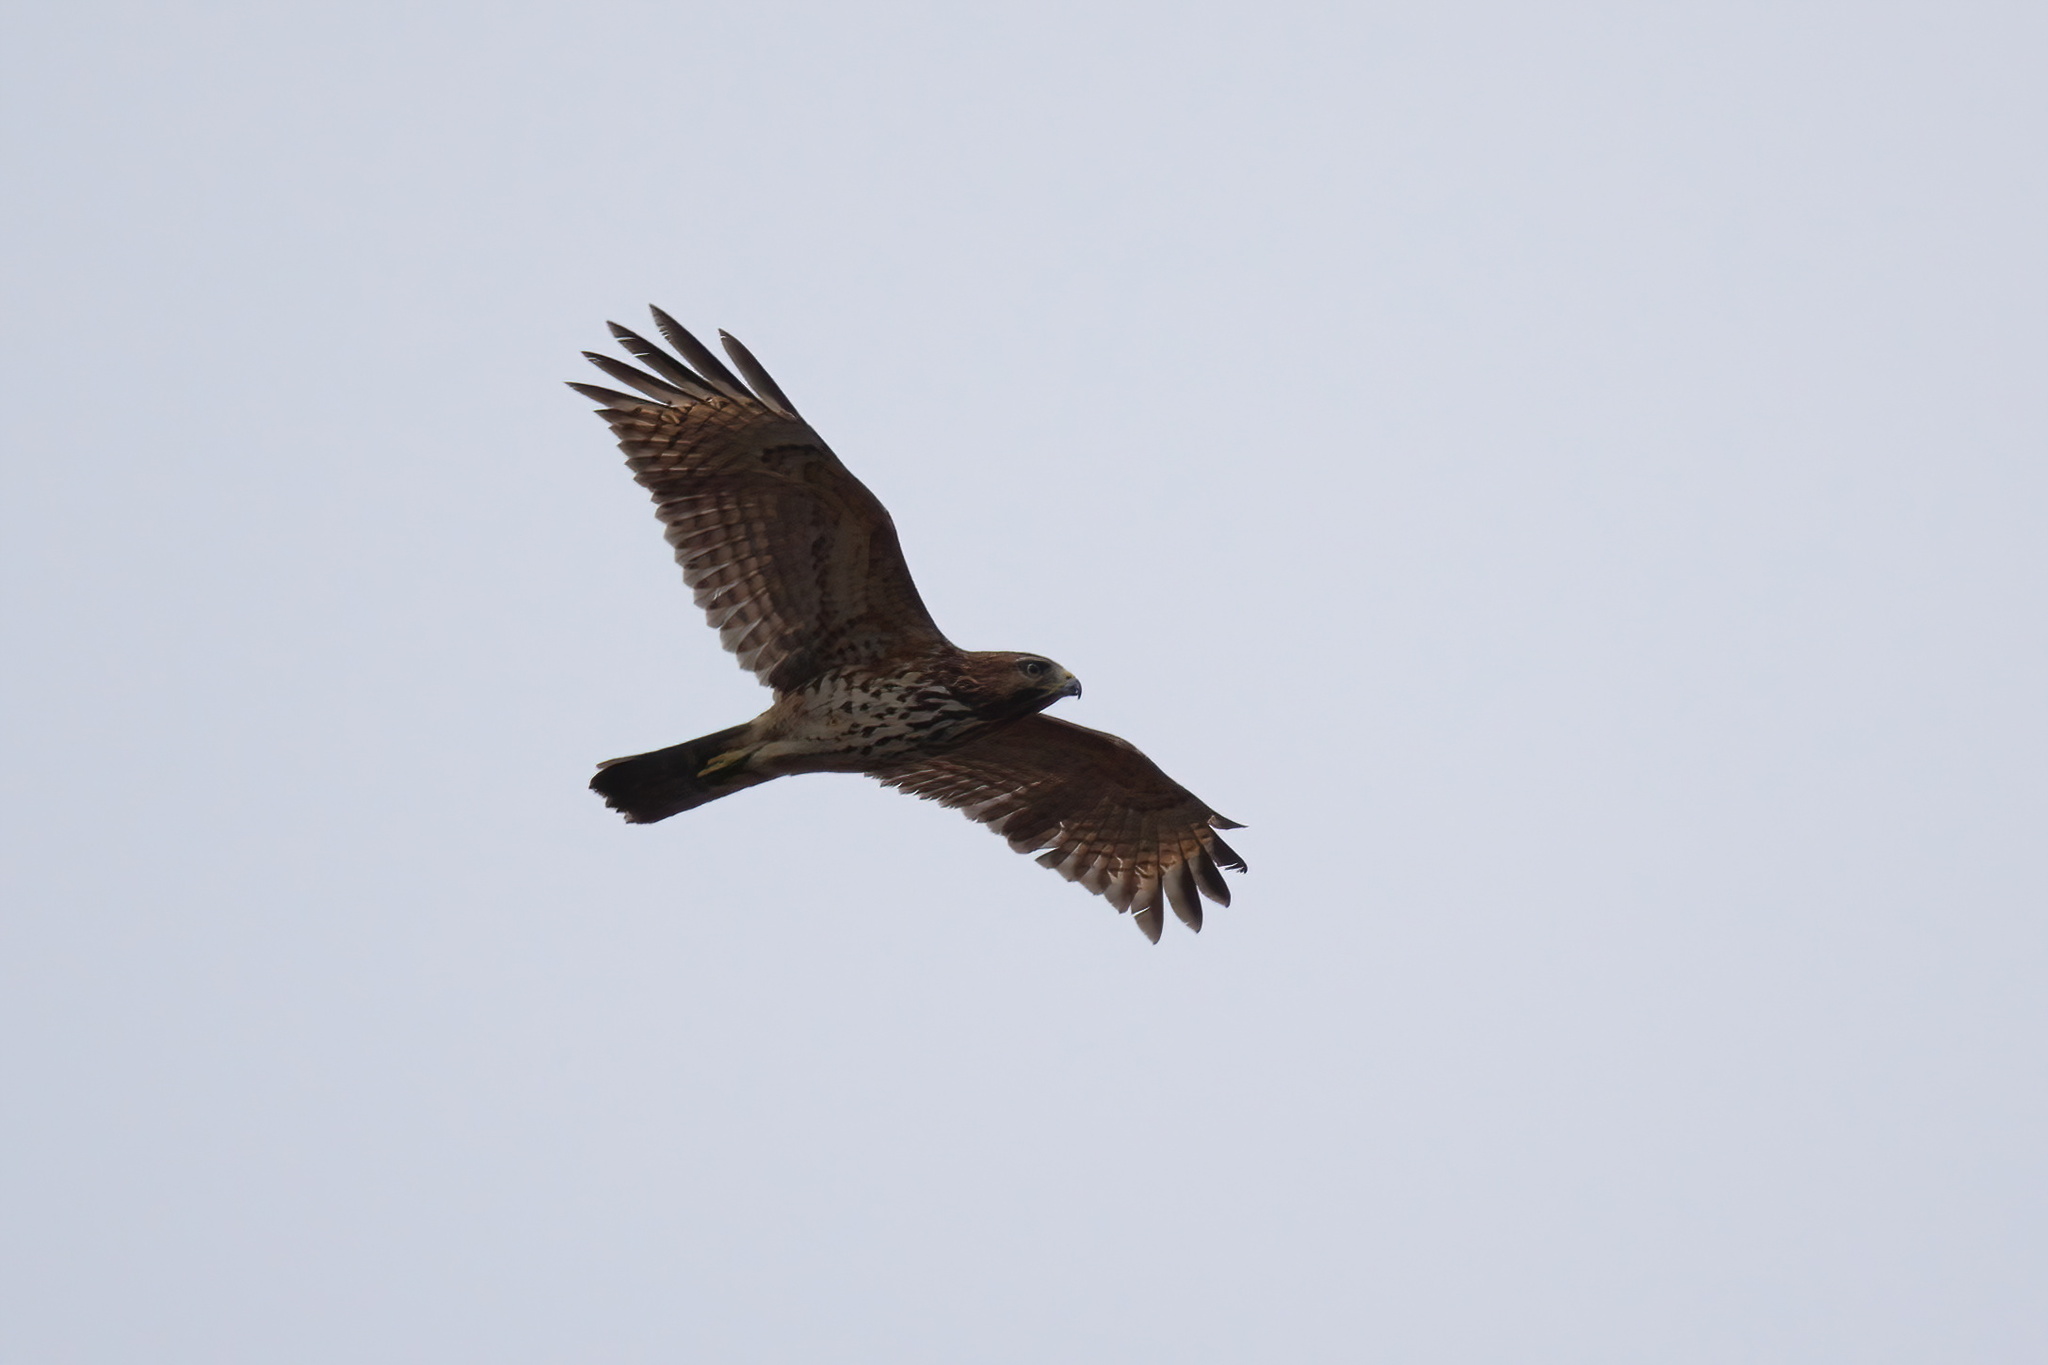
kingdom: Animalia
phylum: Chordata
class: Aves
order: Accipitriformes
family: Accipitridae
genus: Buteo
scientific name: Buteo lineatus
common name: Red-shouldered hawk
